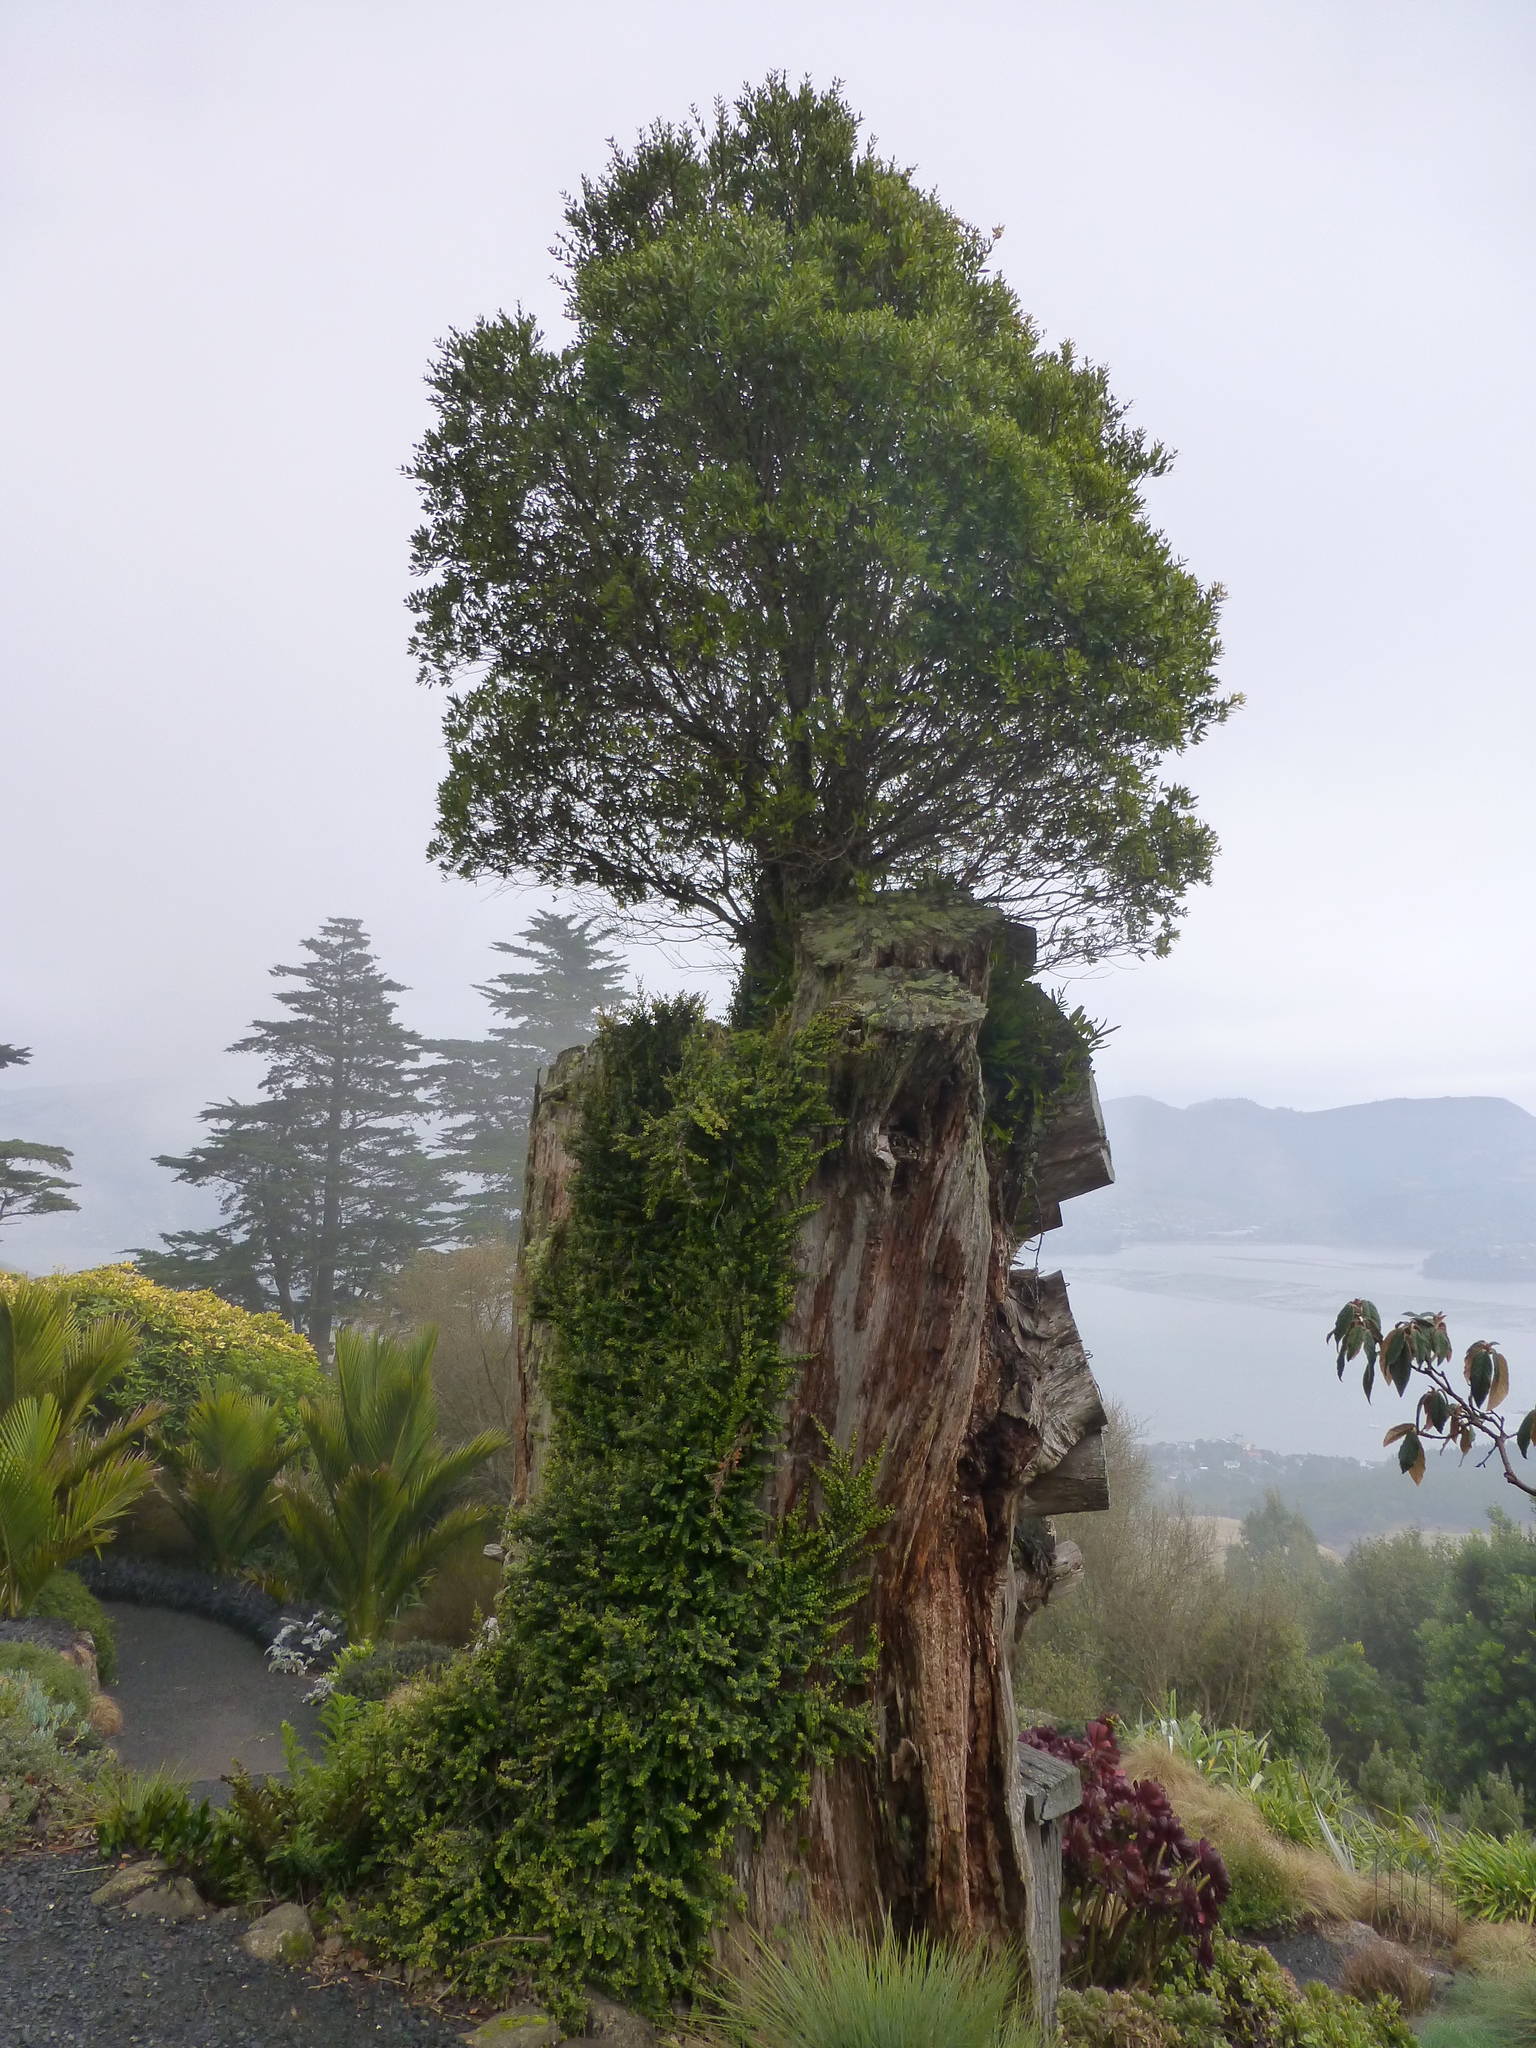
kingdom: Plantae
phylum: Tracheophyta
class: Magnoliopsida
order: Myrtales
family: Myrtaceae
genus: Metrosideros
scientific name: Metrosideros robusta
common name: Northern rata
